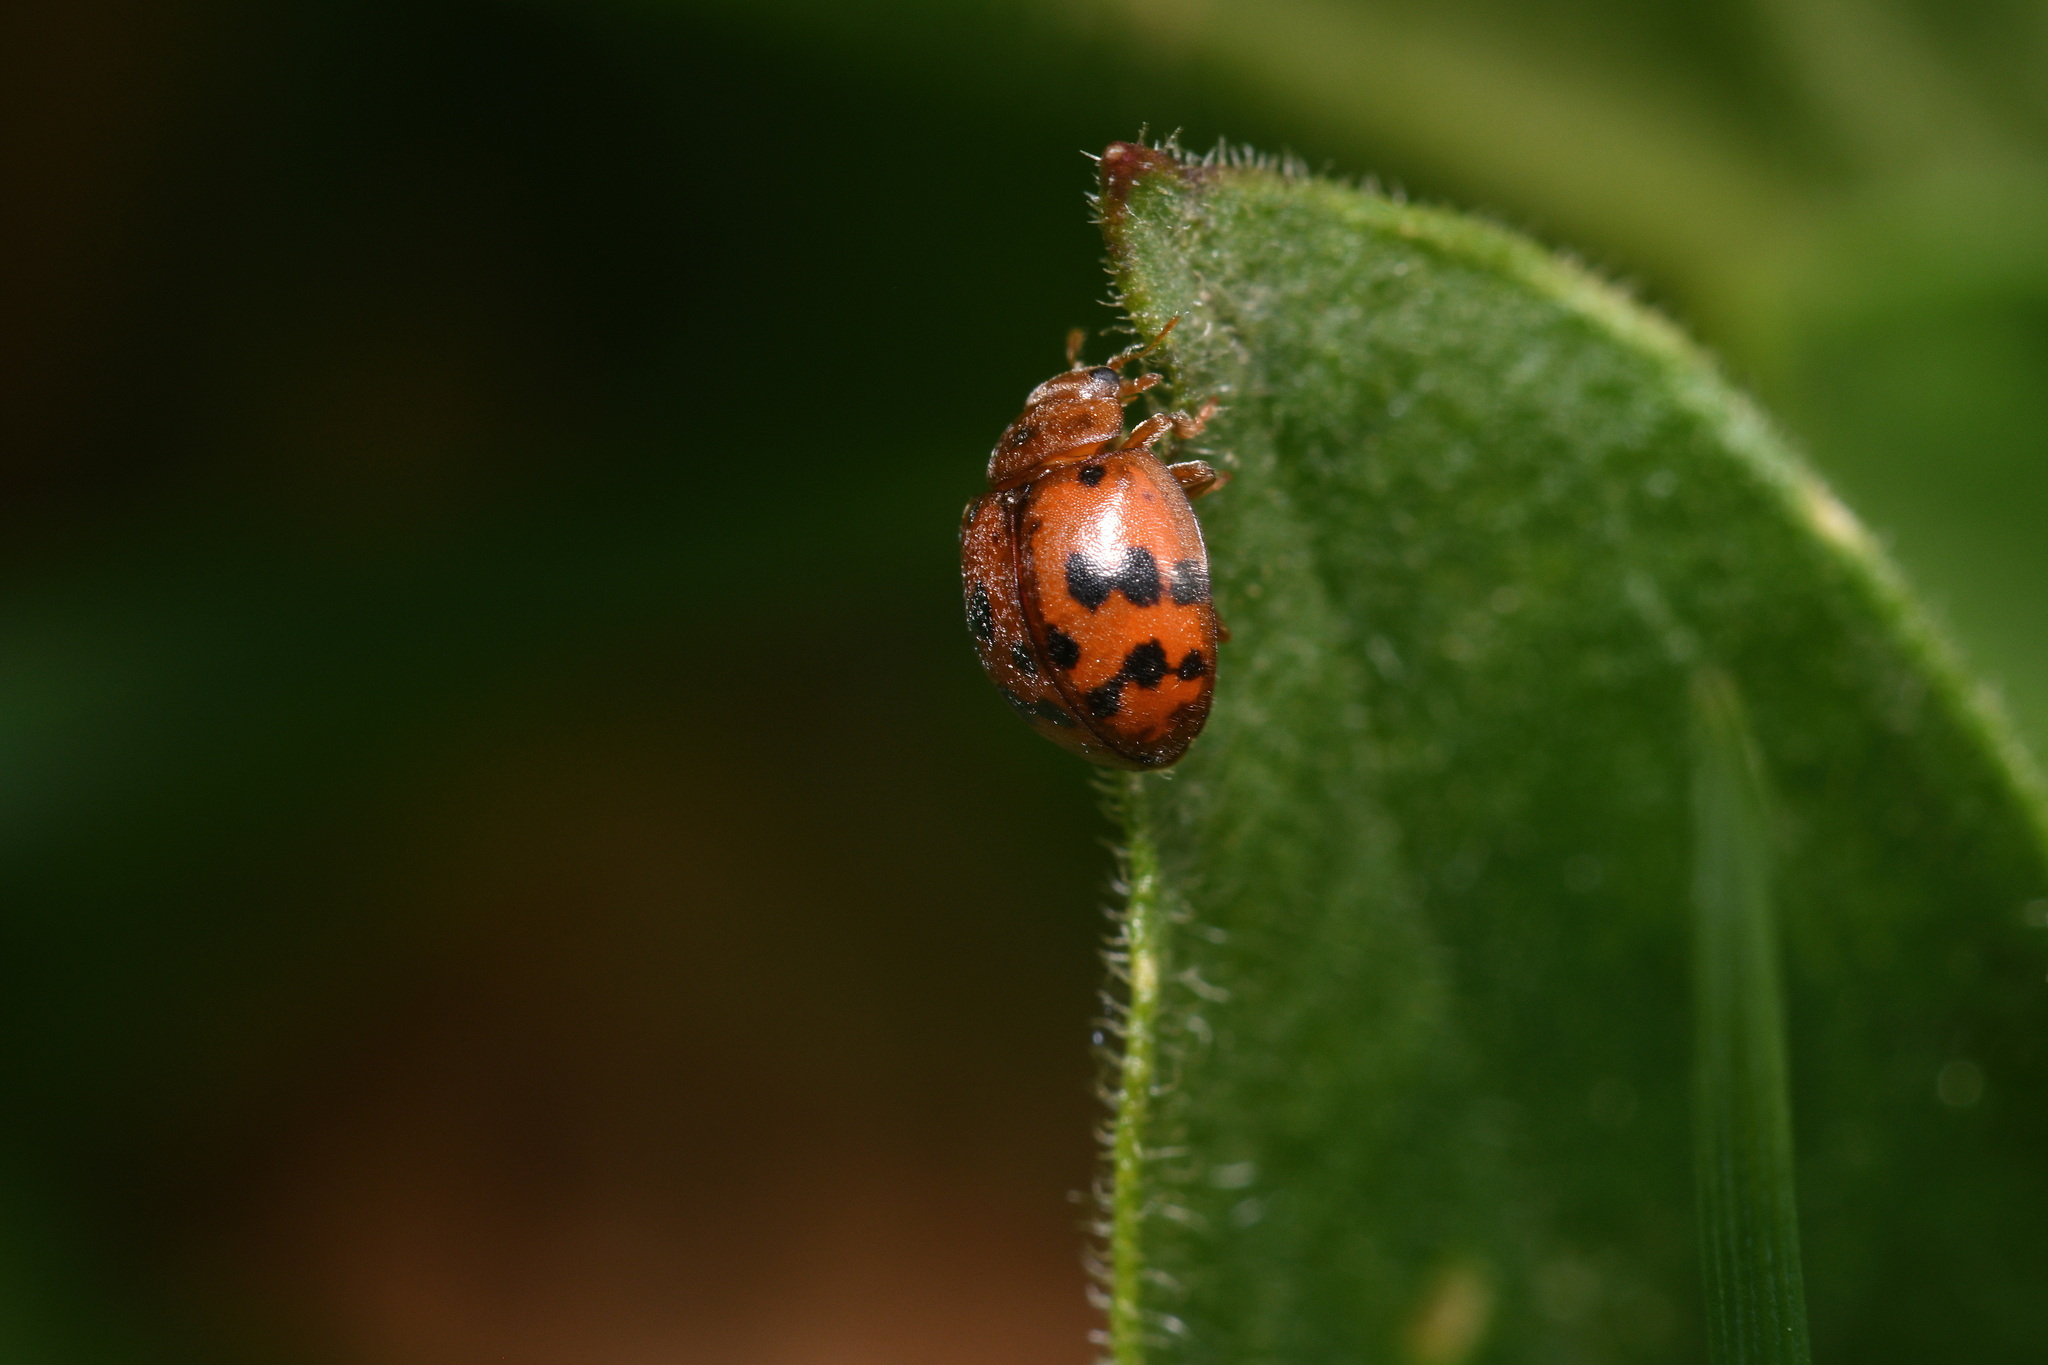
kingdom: Animalia
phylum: Arthropoda
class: Insecta
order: Coleoptera
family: Coccinellidae
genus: Subcoccinella
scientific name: Subcoccinella vigintiquatuorpunctata
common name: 24-spot ladybird
